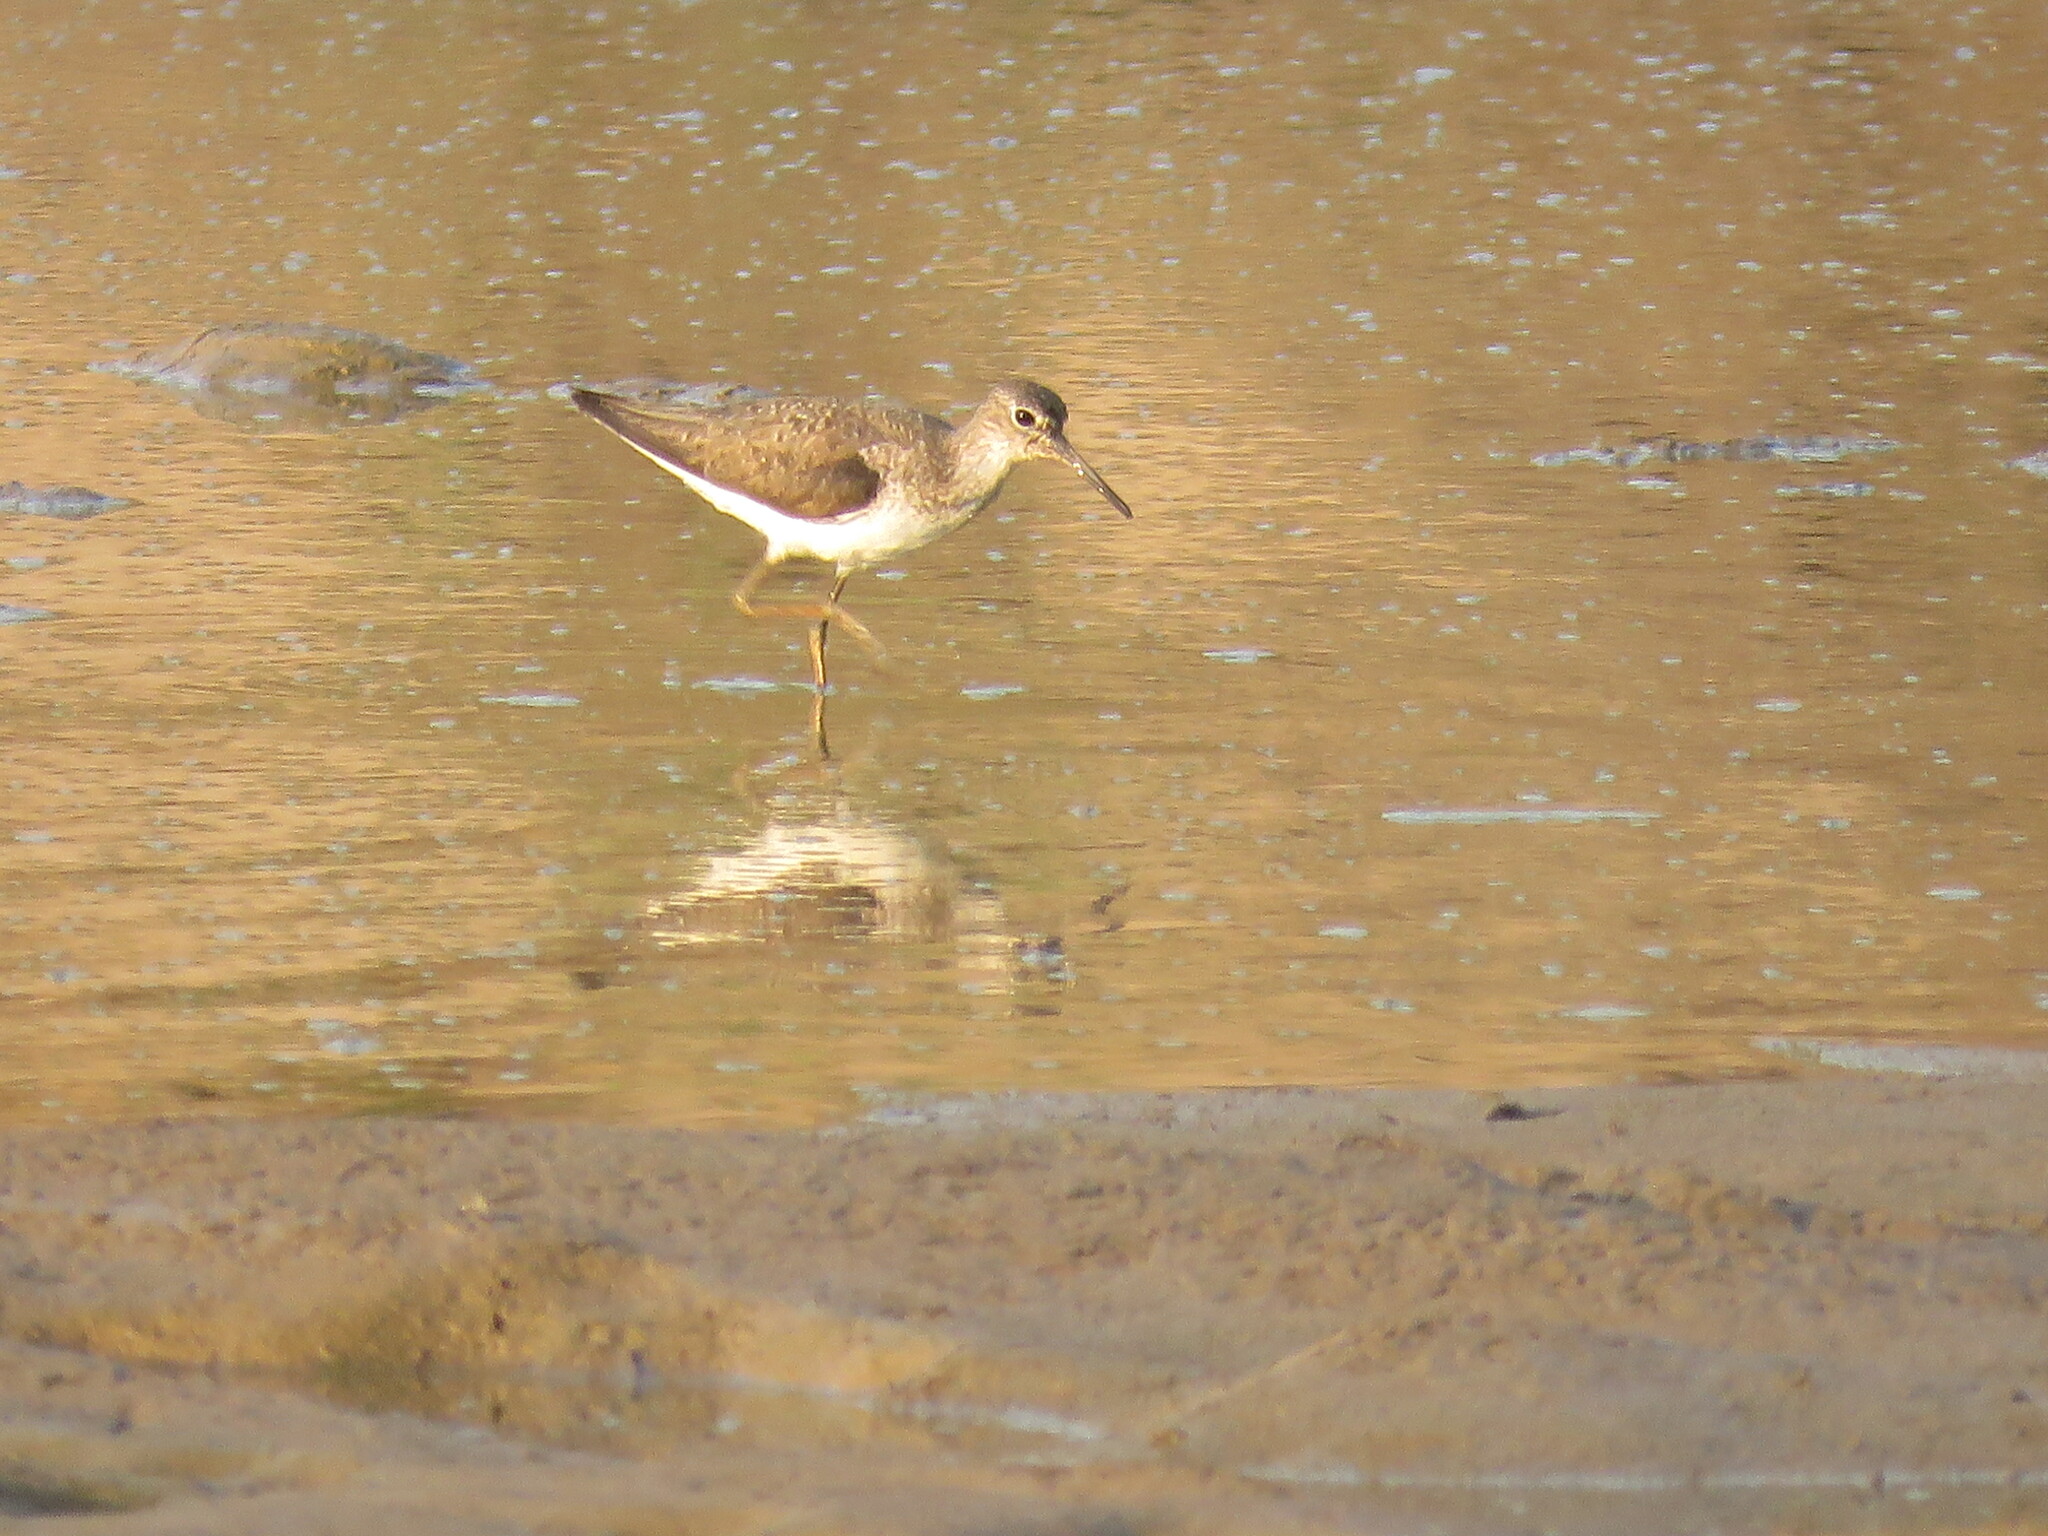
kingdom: Animalia
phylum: Chordata
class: Aves
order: Charadriiformes
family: Scolopacidae
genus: Tringa
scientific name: Tringa solitaria
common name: Solitary sandpiper
